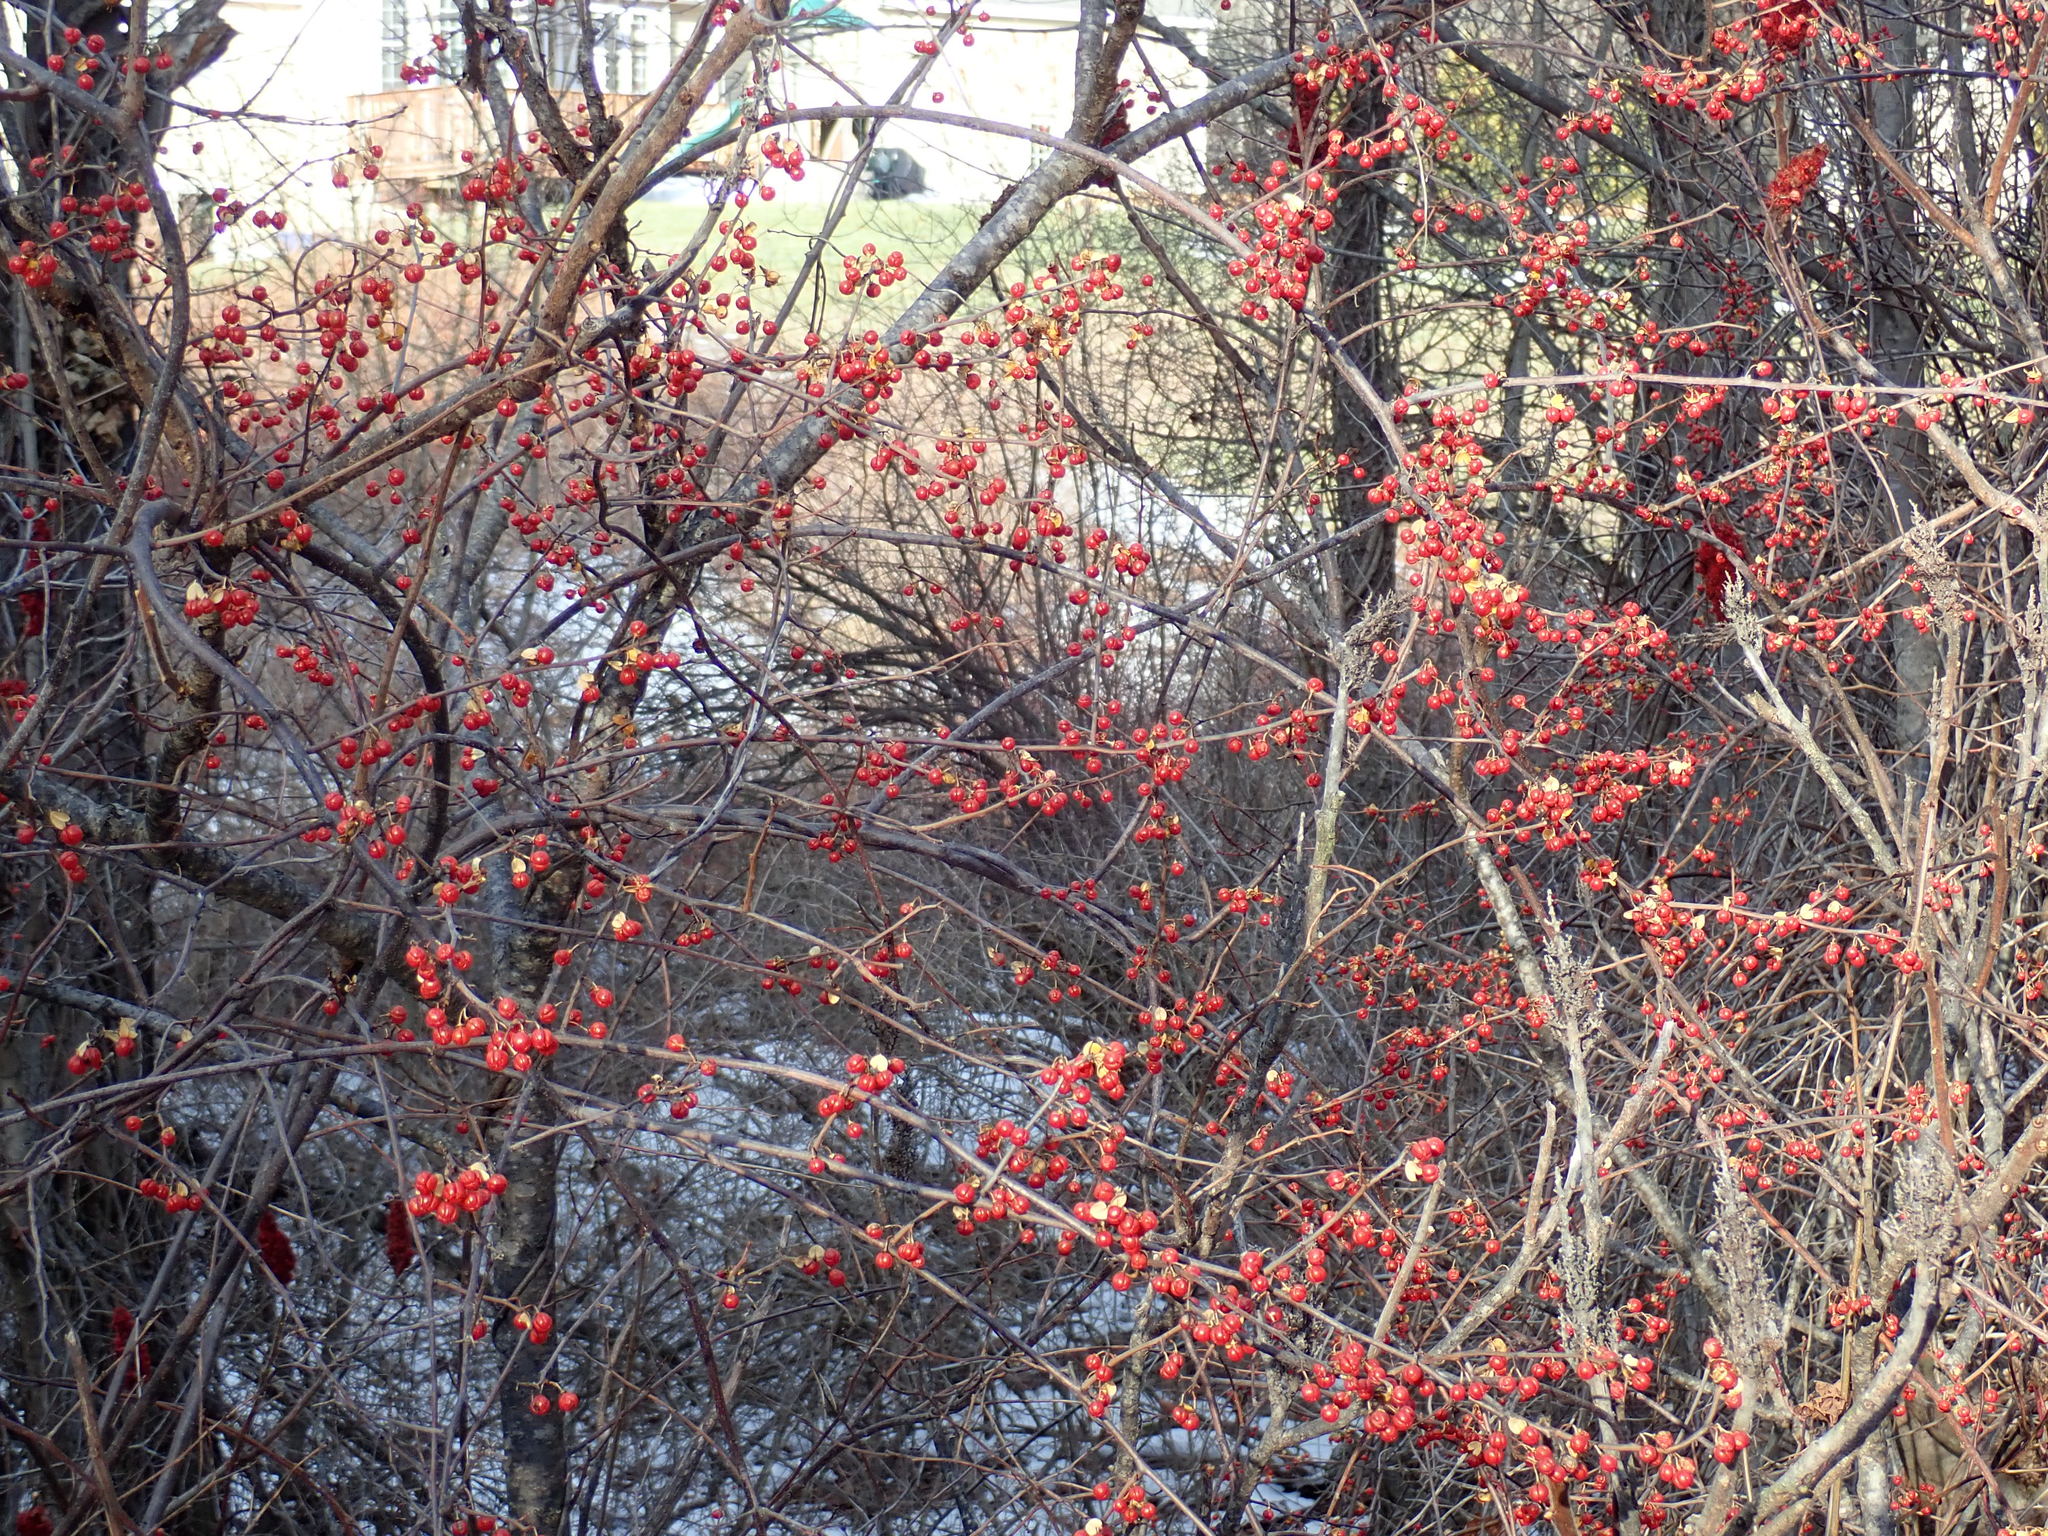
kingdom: Plantae
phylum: Tracheophyta
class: Magnoliopsida
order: Celastrales
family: Celastraceae
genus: Celastrus
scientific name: Celastrus orbiculatus
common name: Oriental bittersweet
